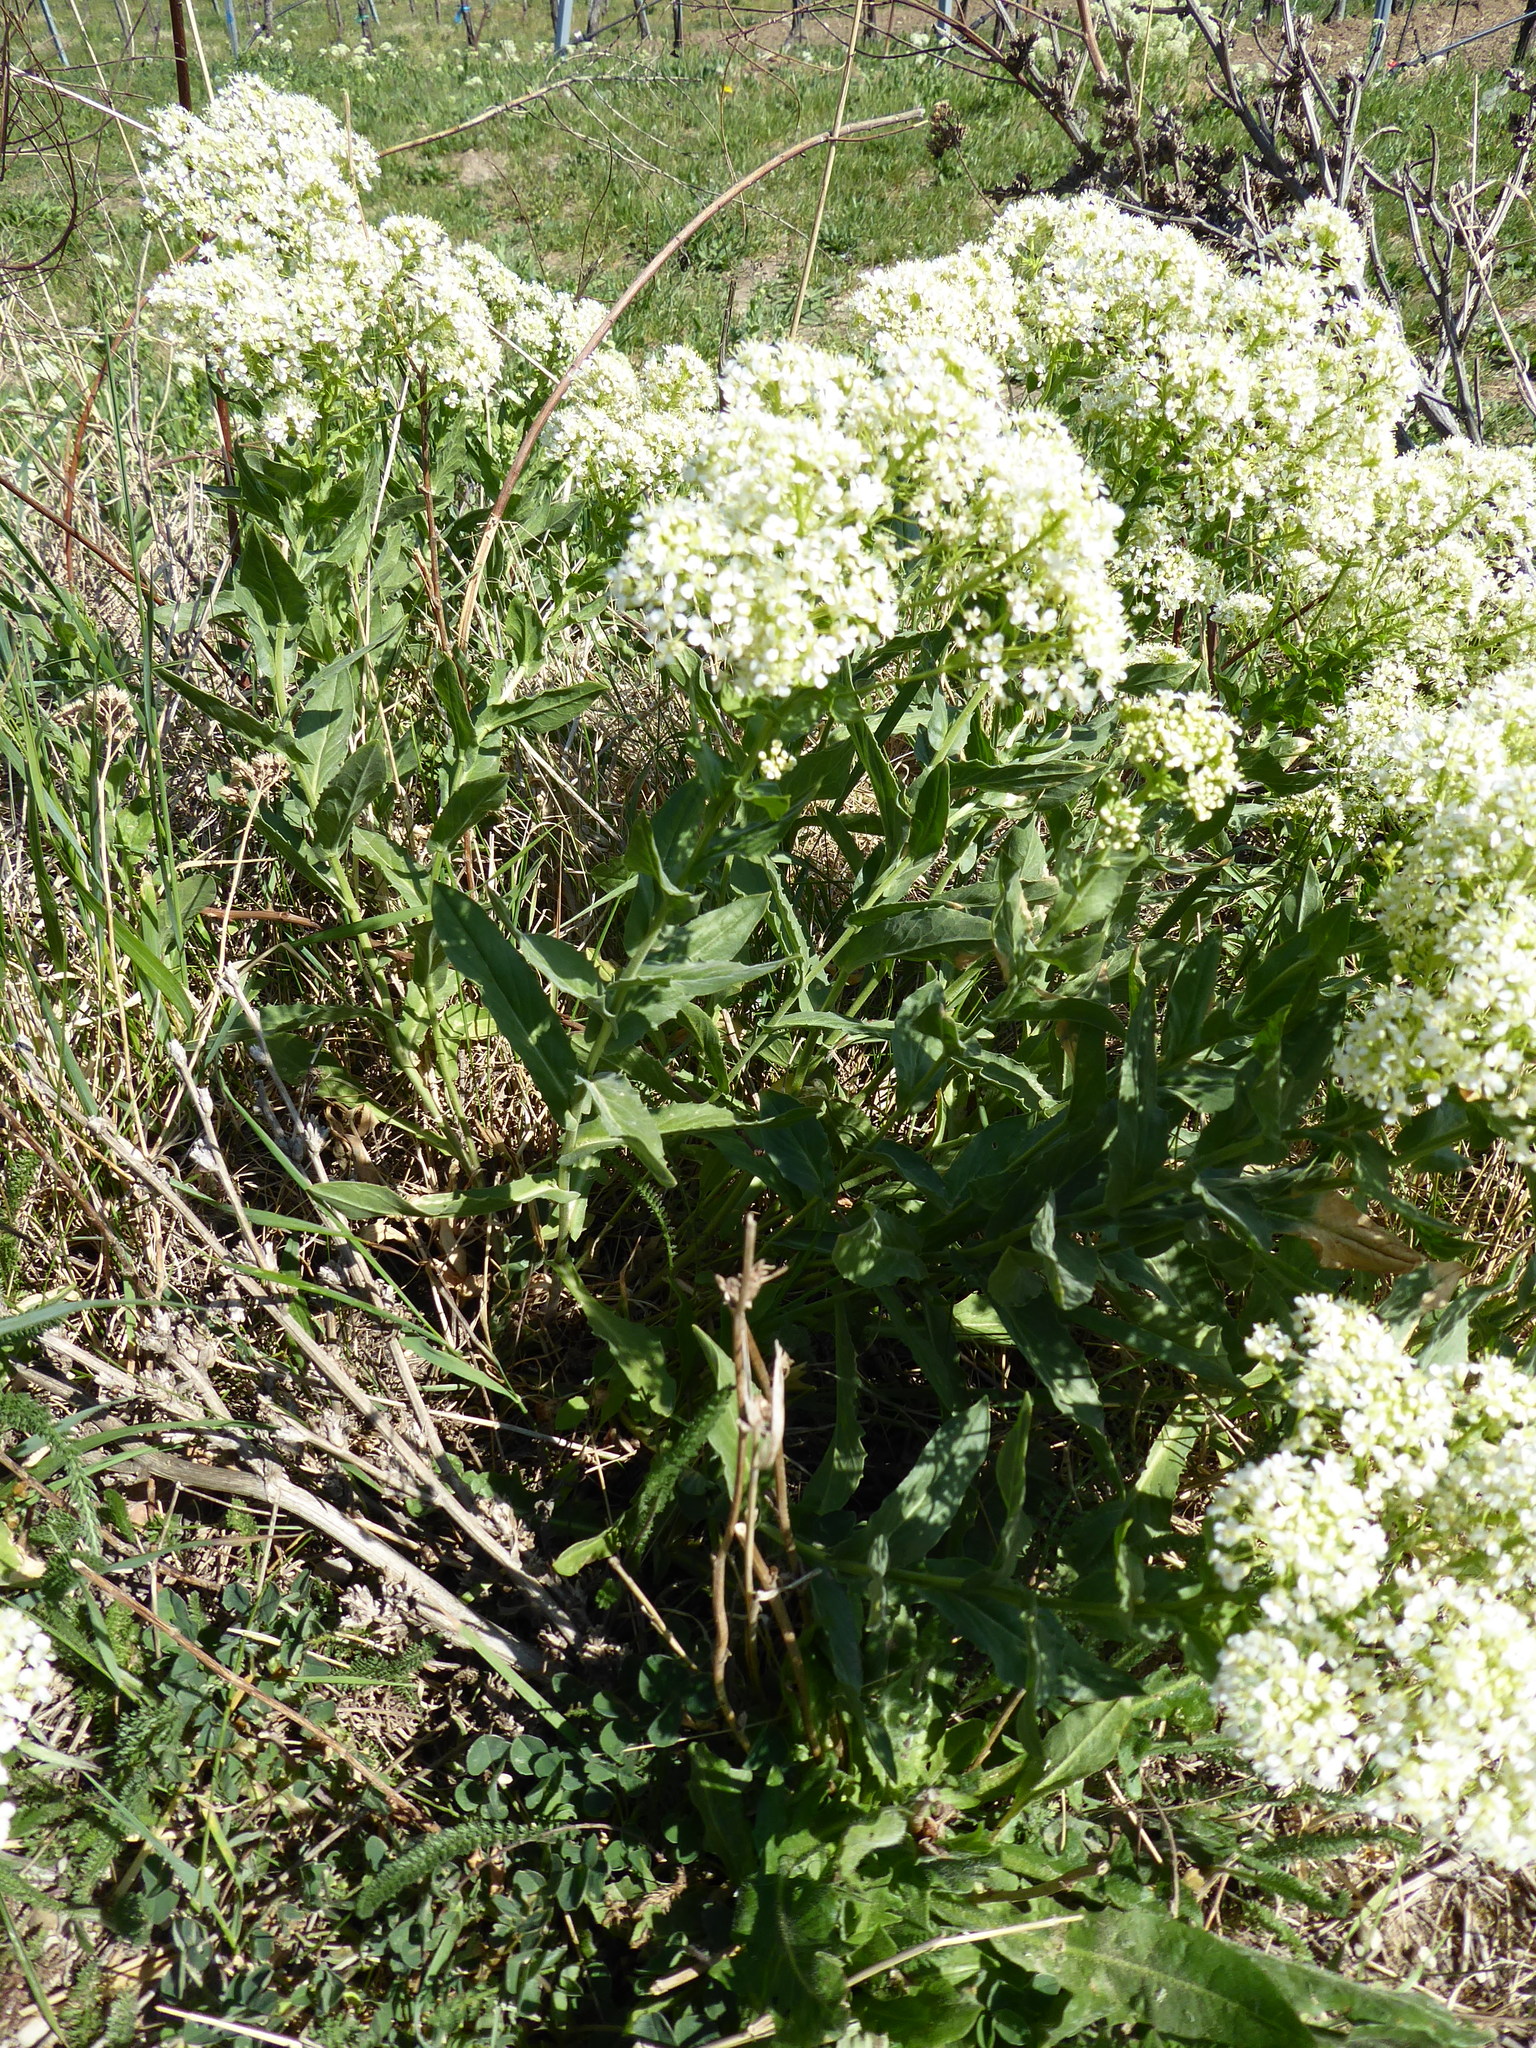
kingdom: Plantae
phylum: Tracheophyta
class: Magnoliopsida
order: Brassicales
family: Brassicaceae
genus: Lepidium
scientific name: Lepidium draba
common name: Hoary cress
